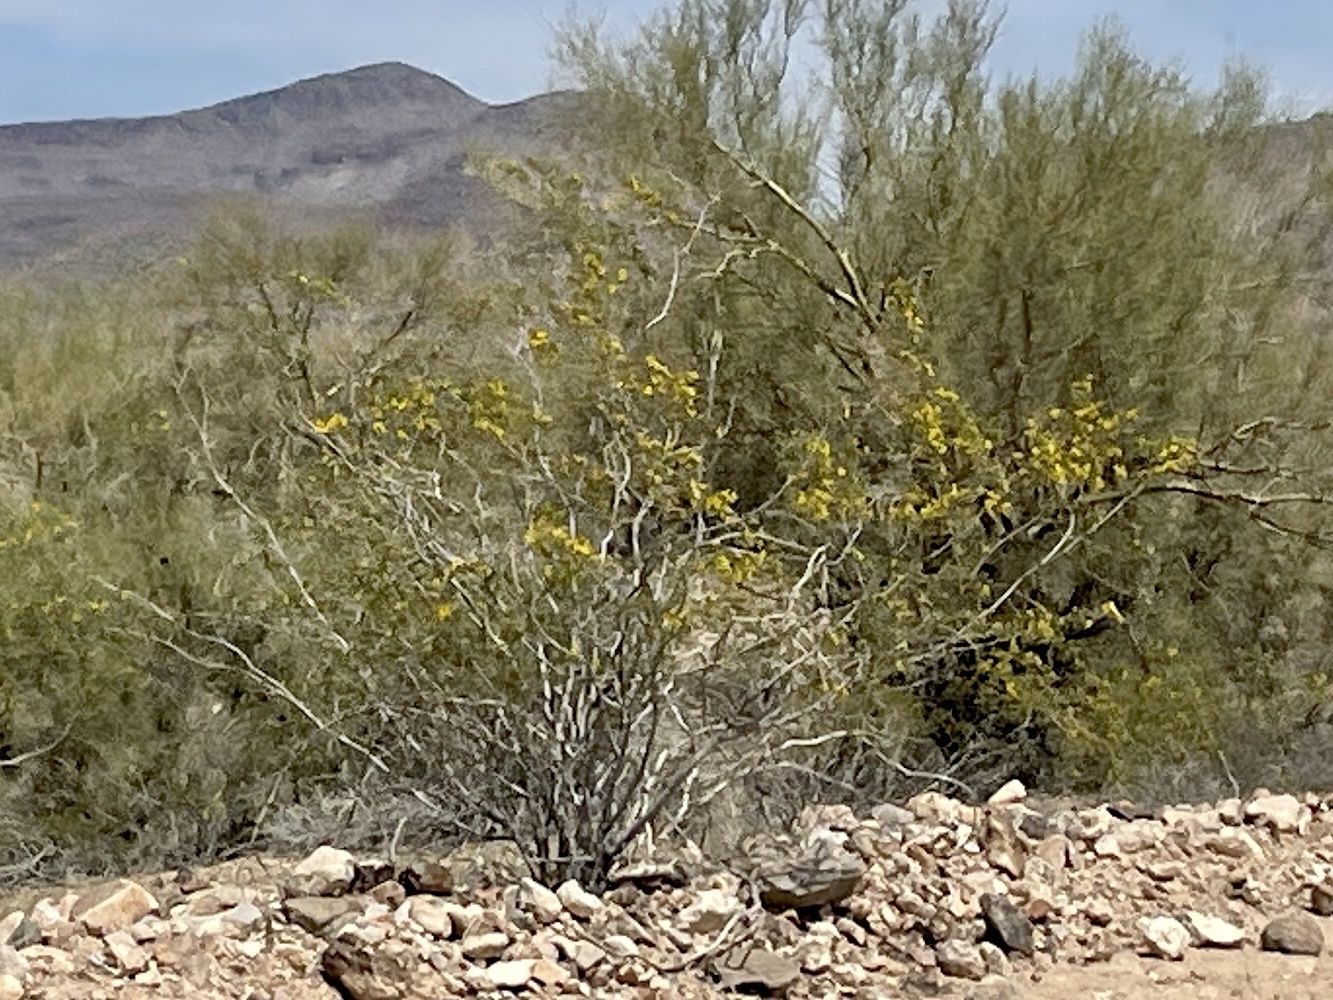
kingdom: Plantae
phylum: Tracheophyta
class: Magnoliopsida
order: Zygophyllales
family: Zygophyllaceae
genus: Larrea
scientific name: Larrea tridentata
